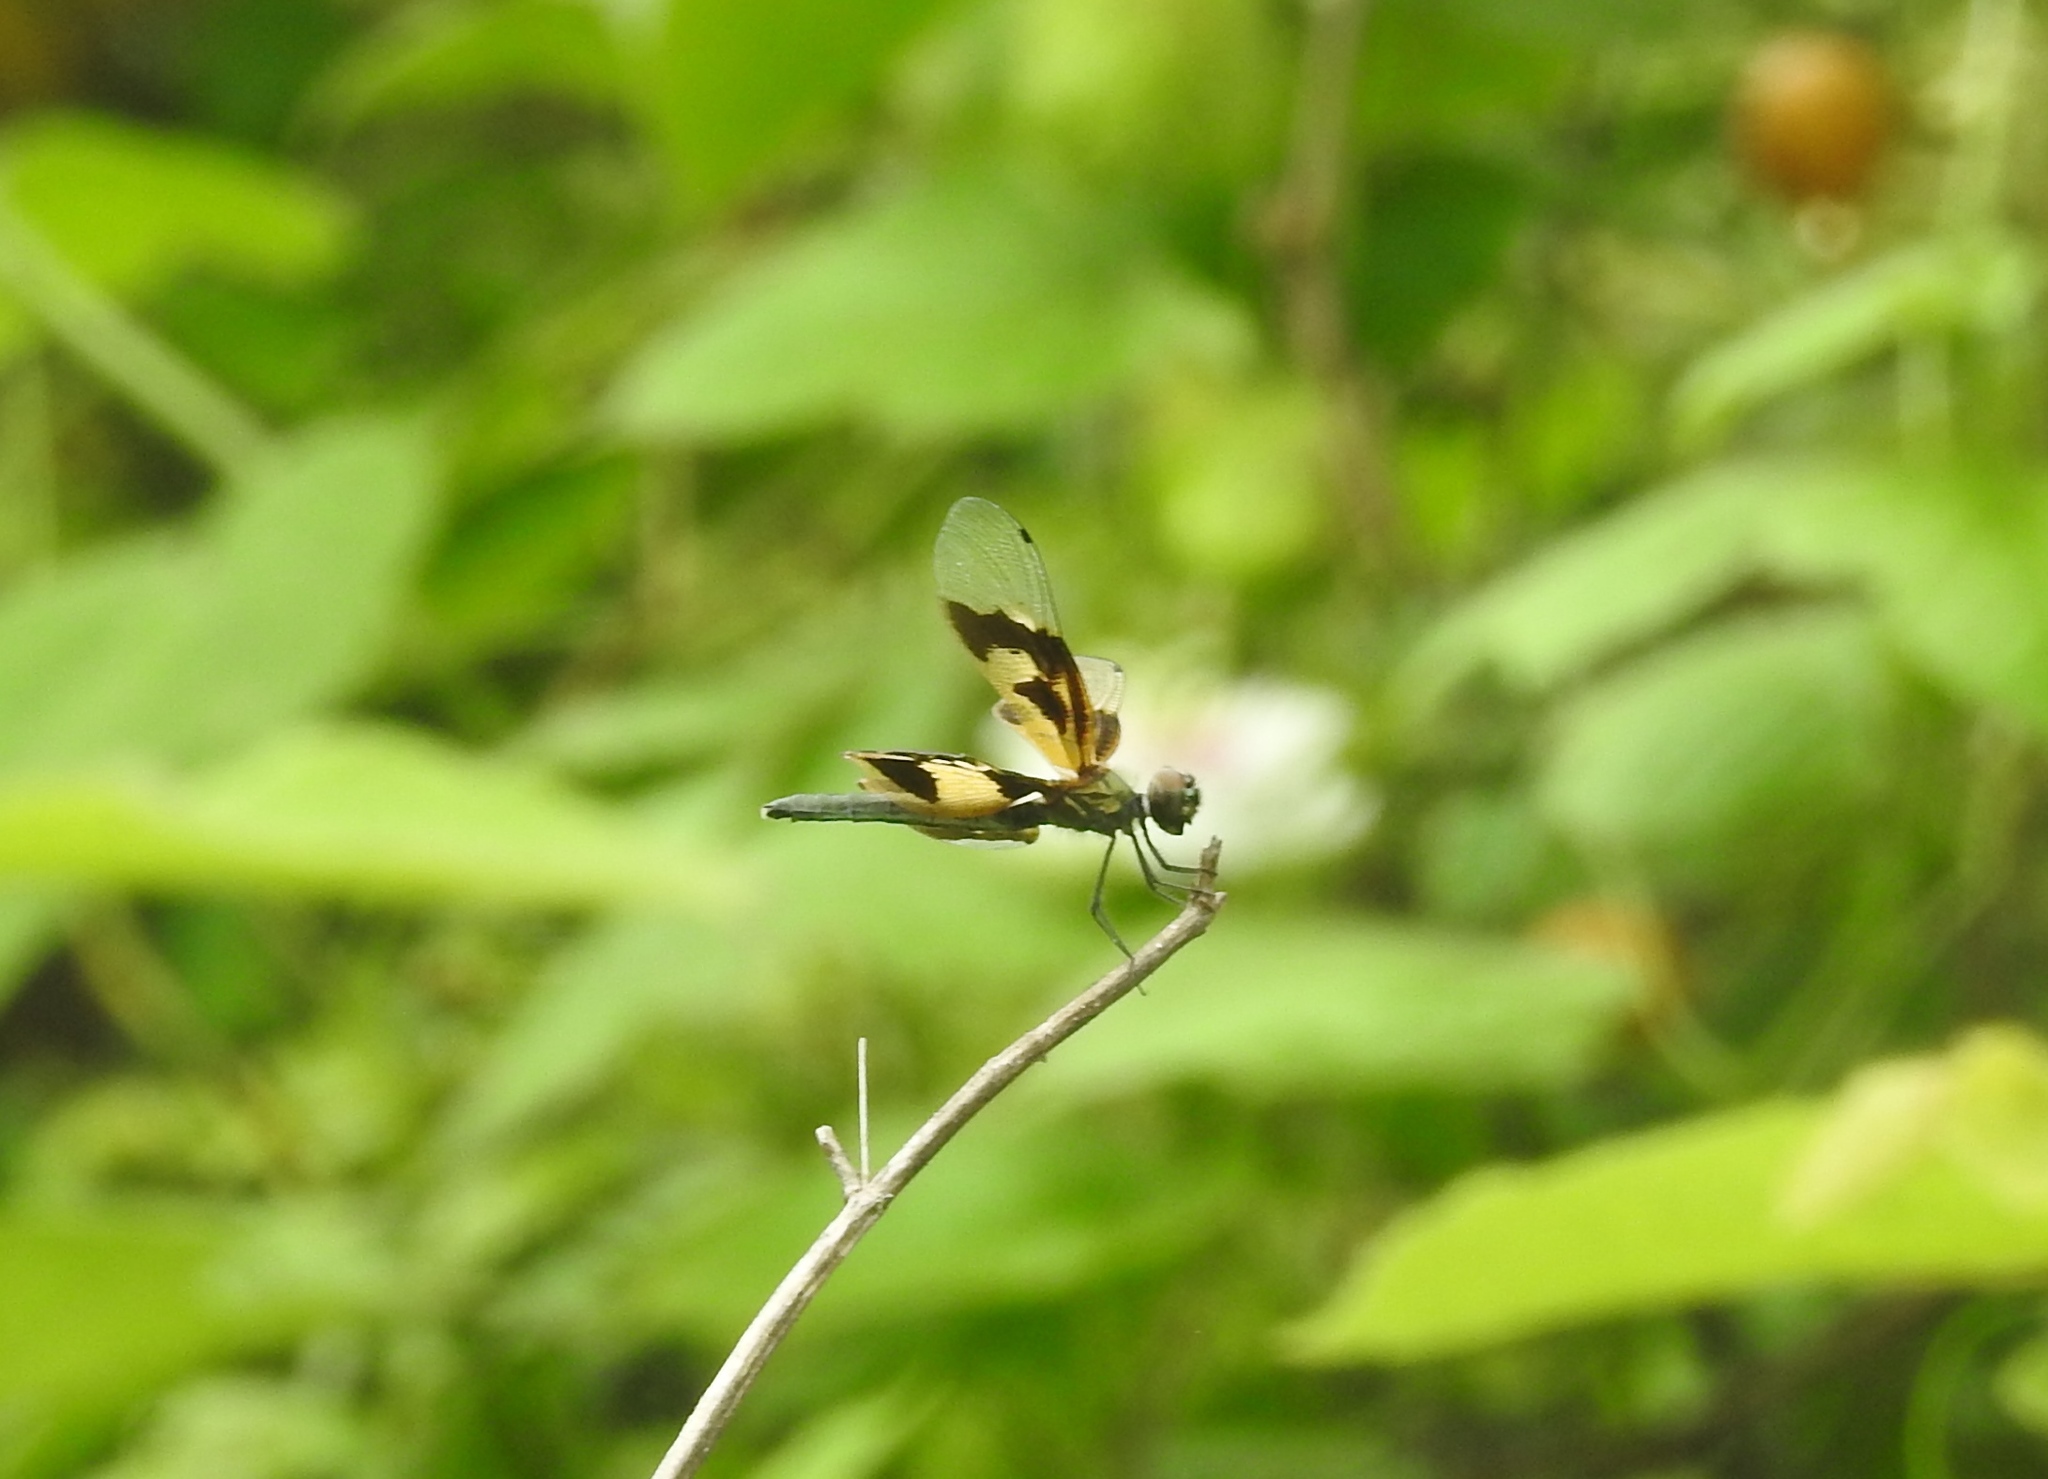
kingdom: Animalia
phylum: Arthropoda
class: Insecta
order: Odonata
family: Libellulidae
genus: Rhyothemis
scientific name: Rhyothemis variegata
